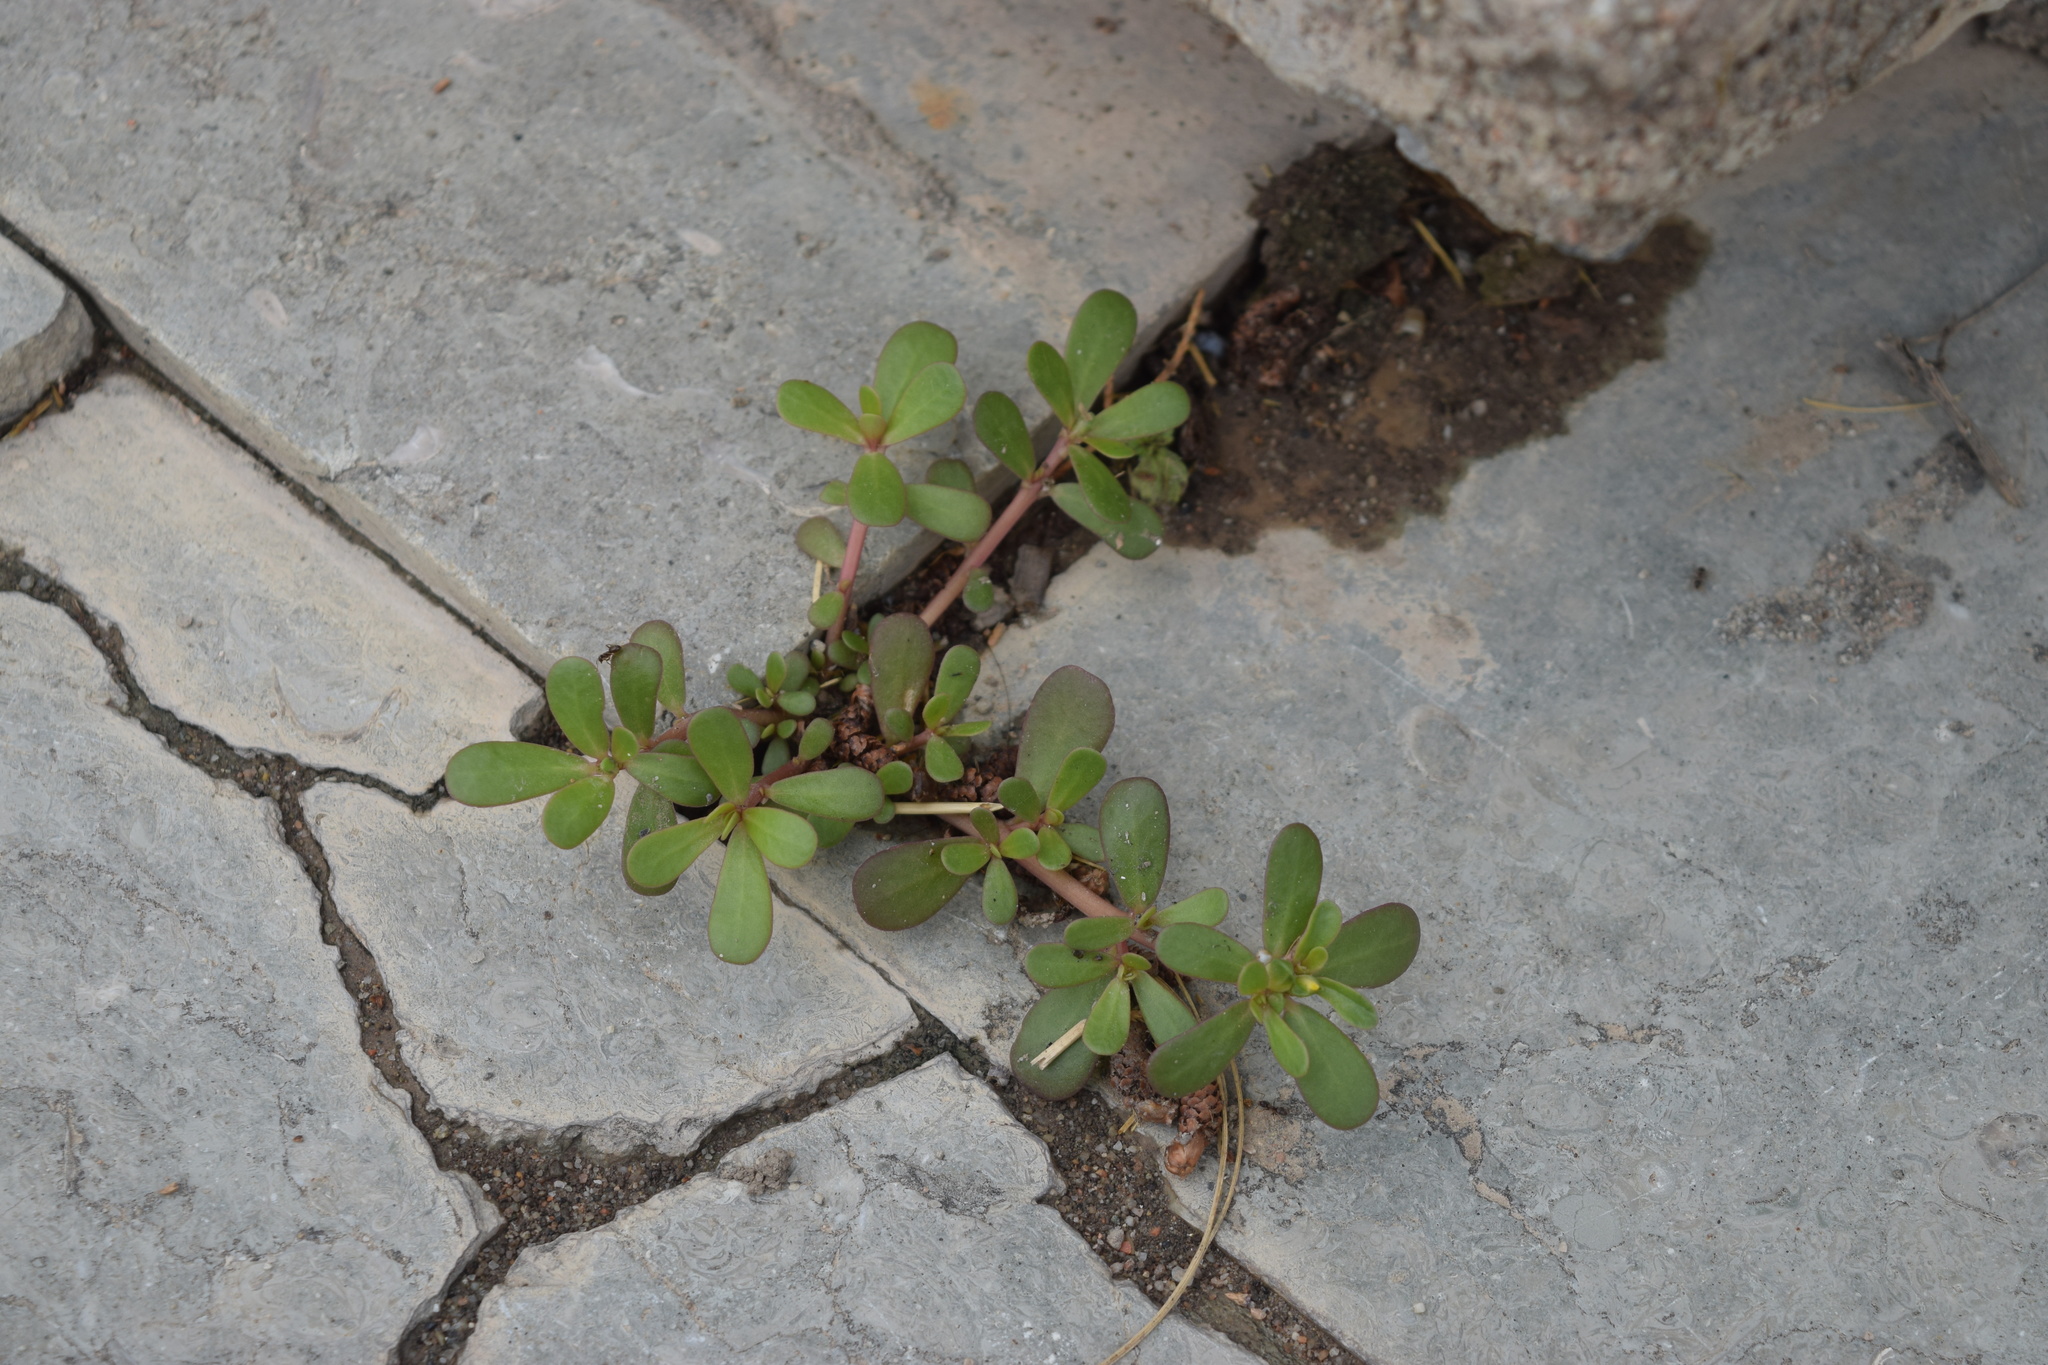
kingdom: Plantae
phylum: Tracheophyta
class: Magnoliopsida
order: Caryophyllales
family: Portulacaceae
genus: Portulaca
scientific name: Portulaca oleracea
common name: Common purslane
